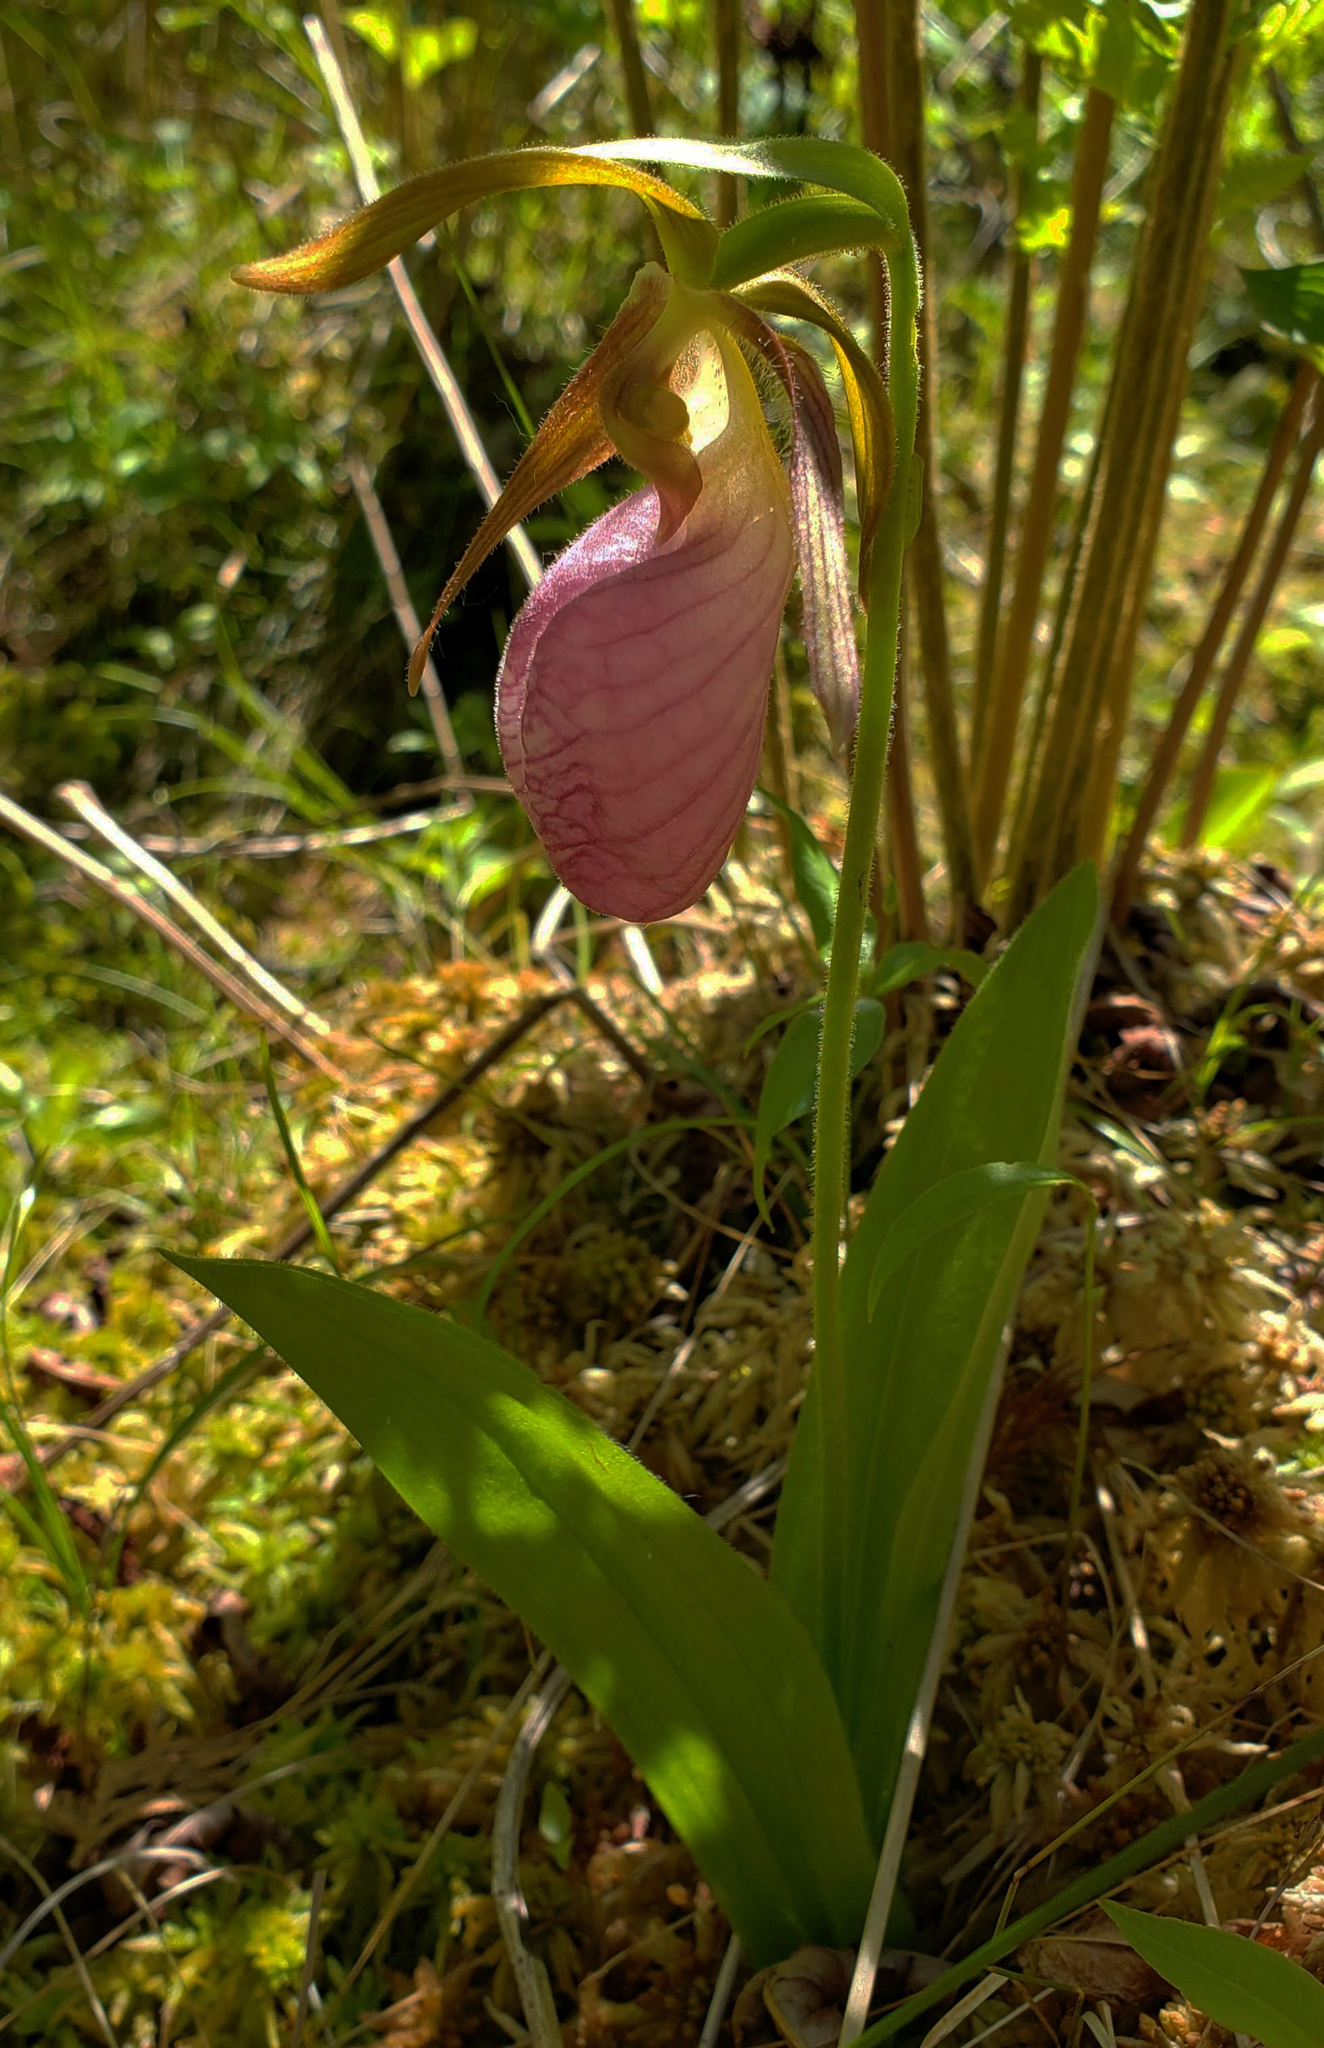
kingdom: Plantae
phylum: Tracheophyta
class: Liliopsida
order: Asparagales
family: Orchidaceae
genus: Cypripedium
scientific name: Cypripedium acaule
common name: Pink lady's-slipper
